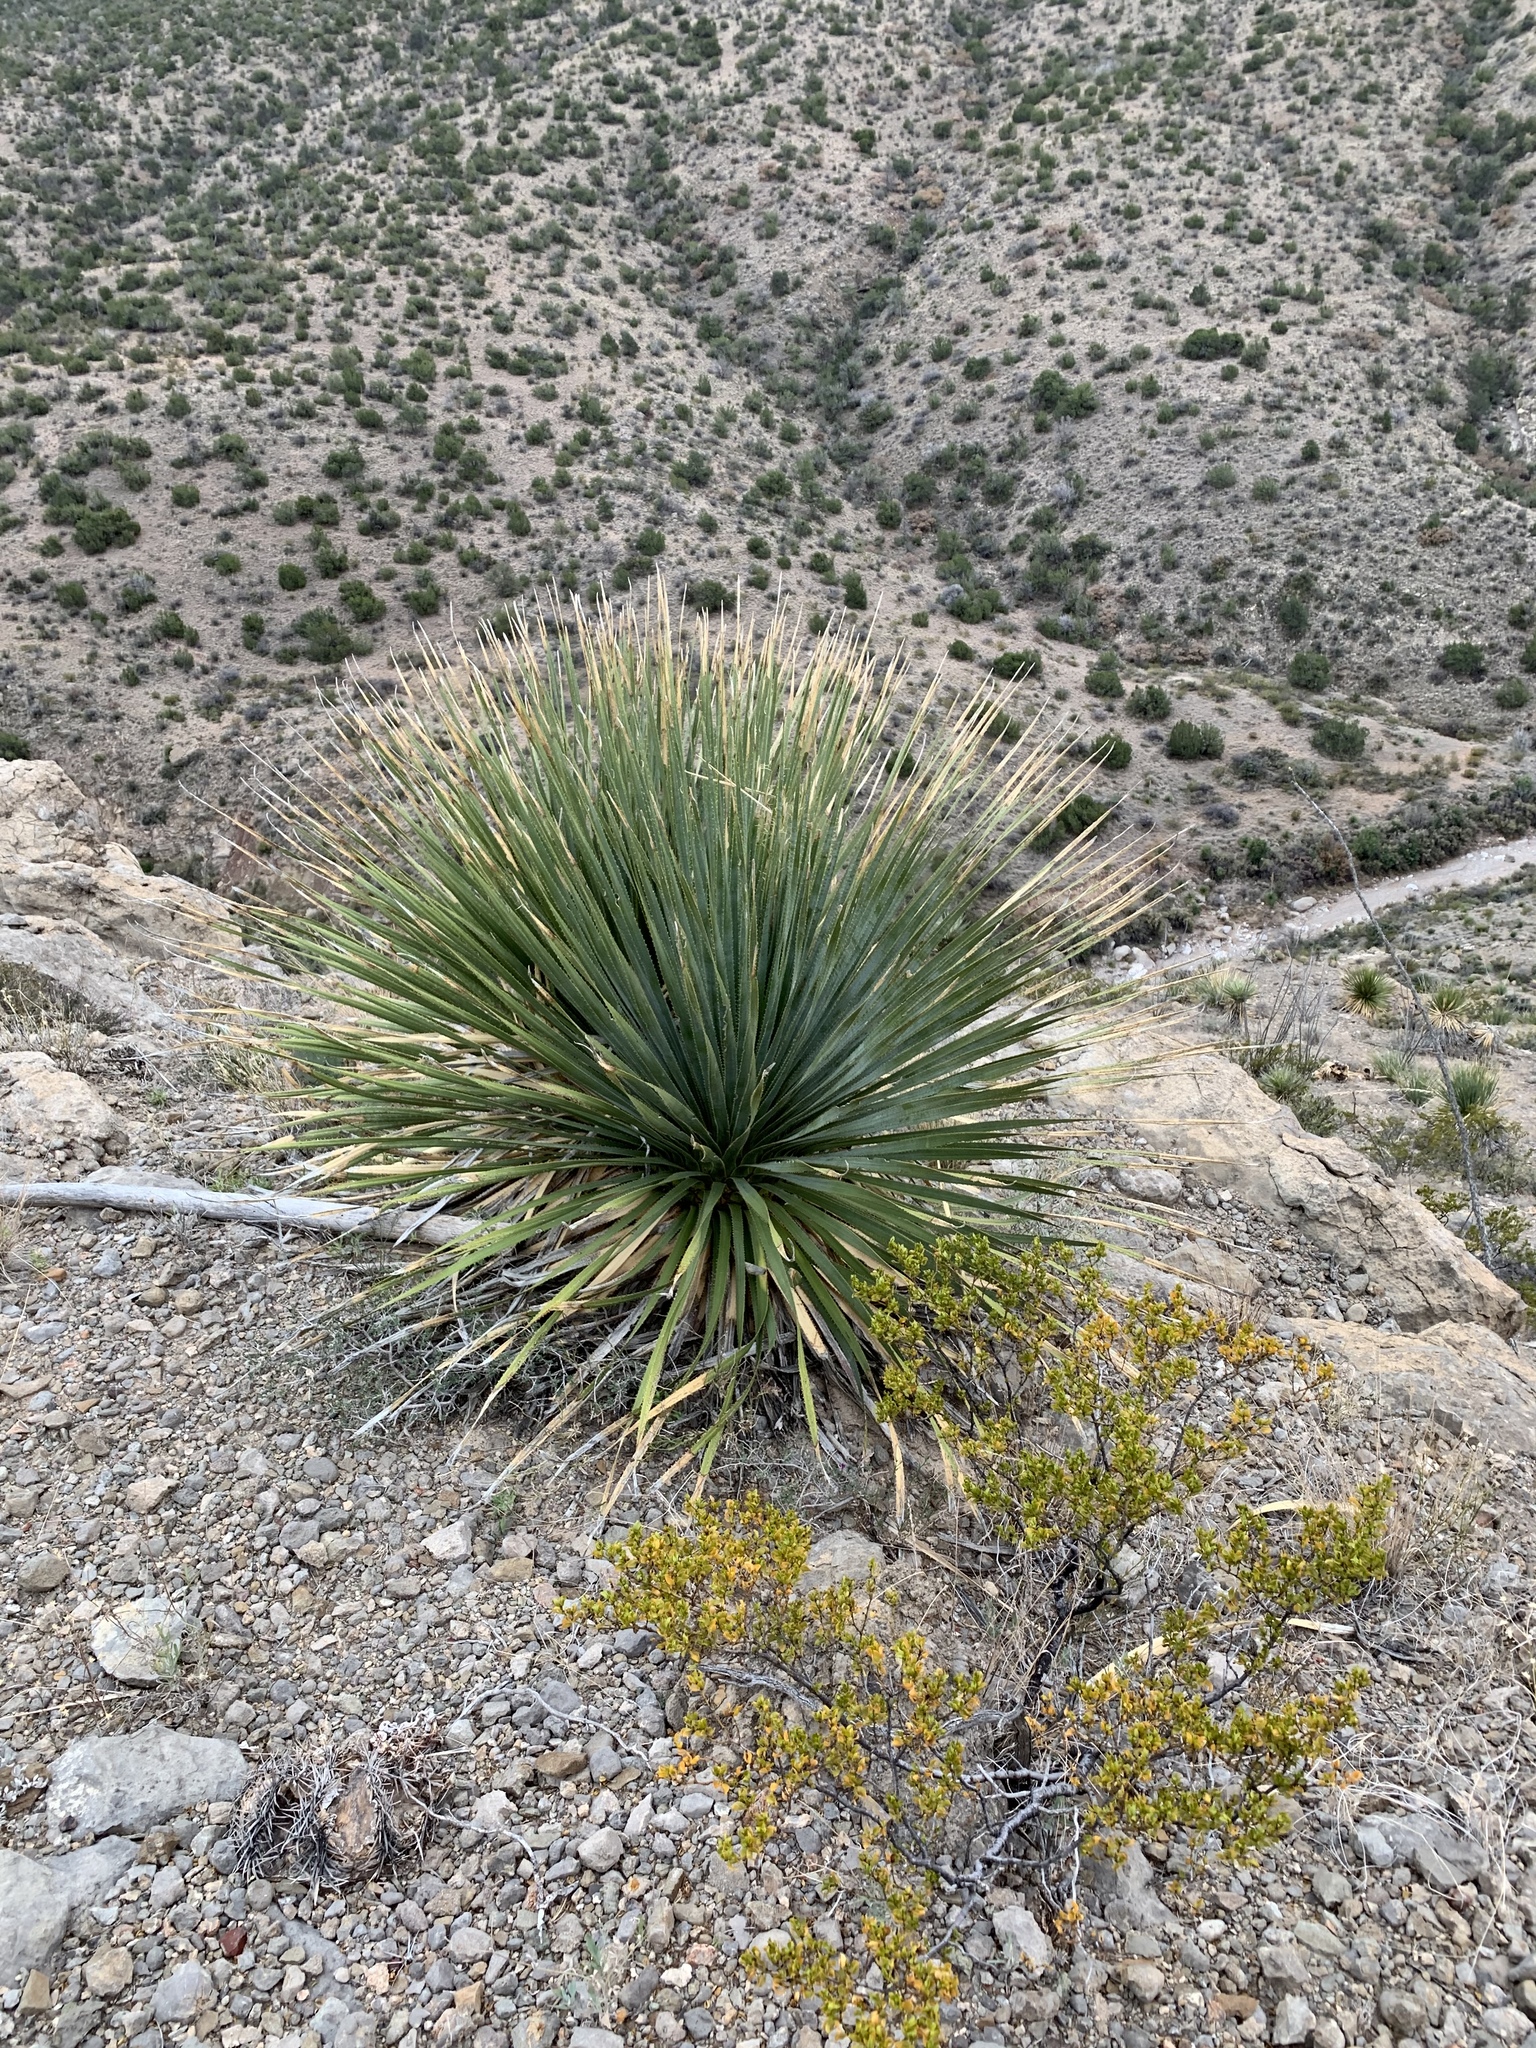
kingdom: Plantae
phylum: Tracheophyta
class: Liliopsida
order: Asparagales
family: Asparagaceae
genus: Dasylirion
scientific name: Dasylirion wheeleri
